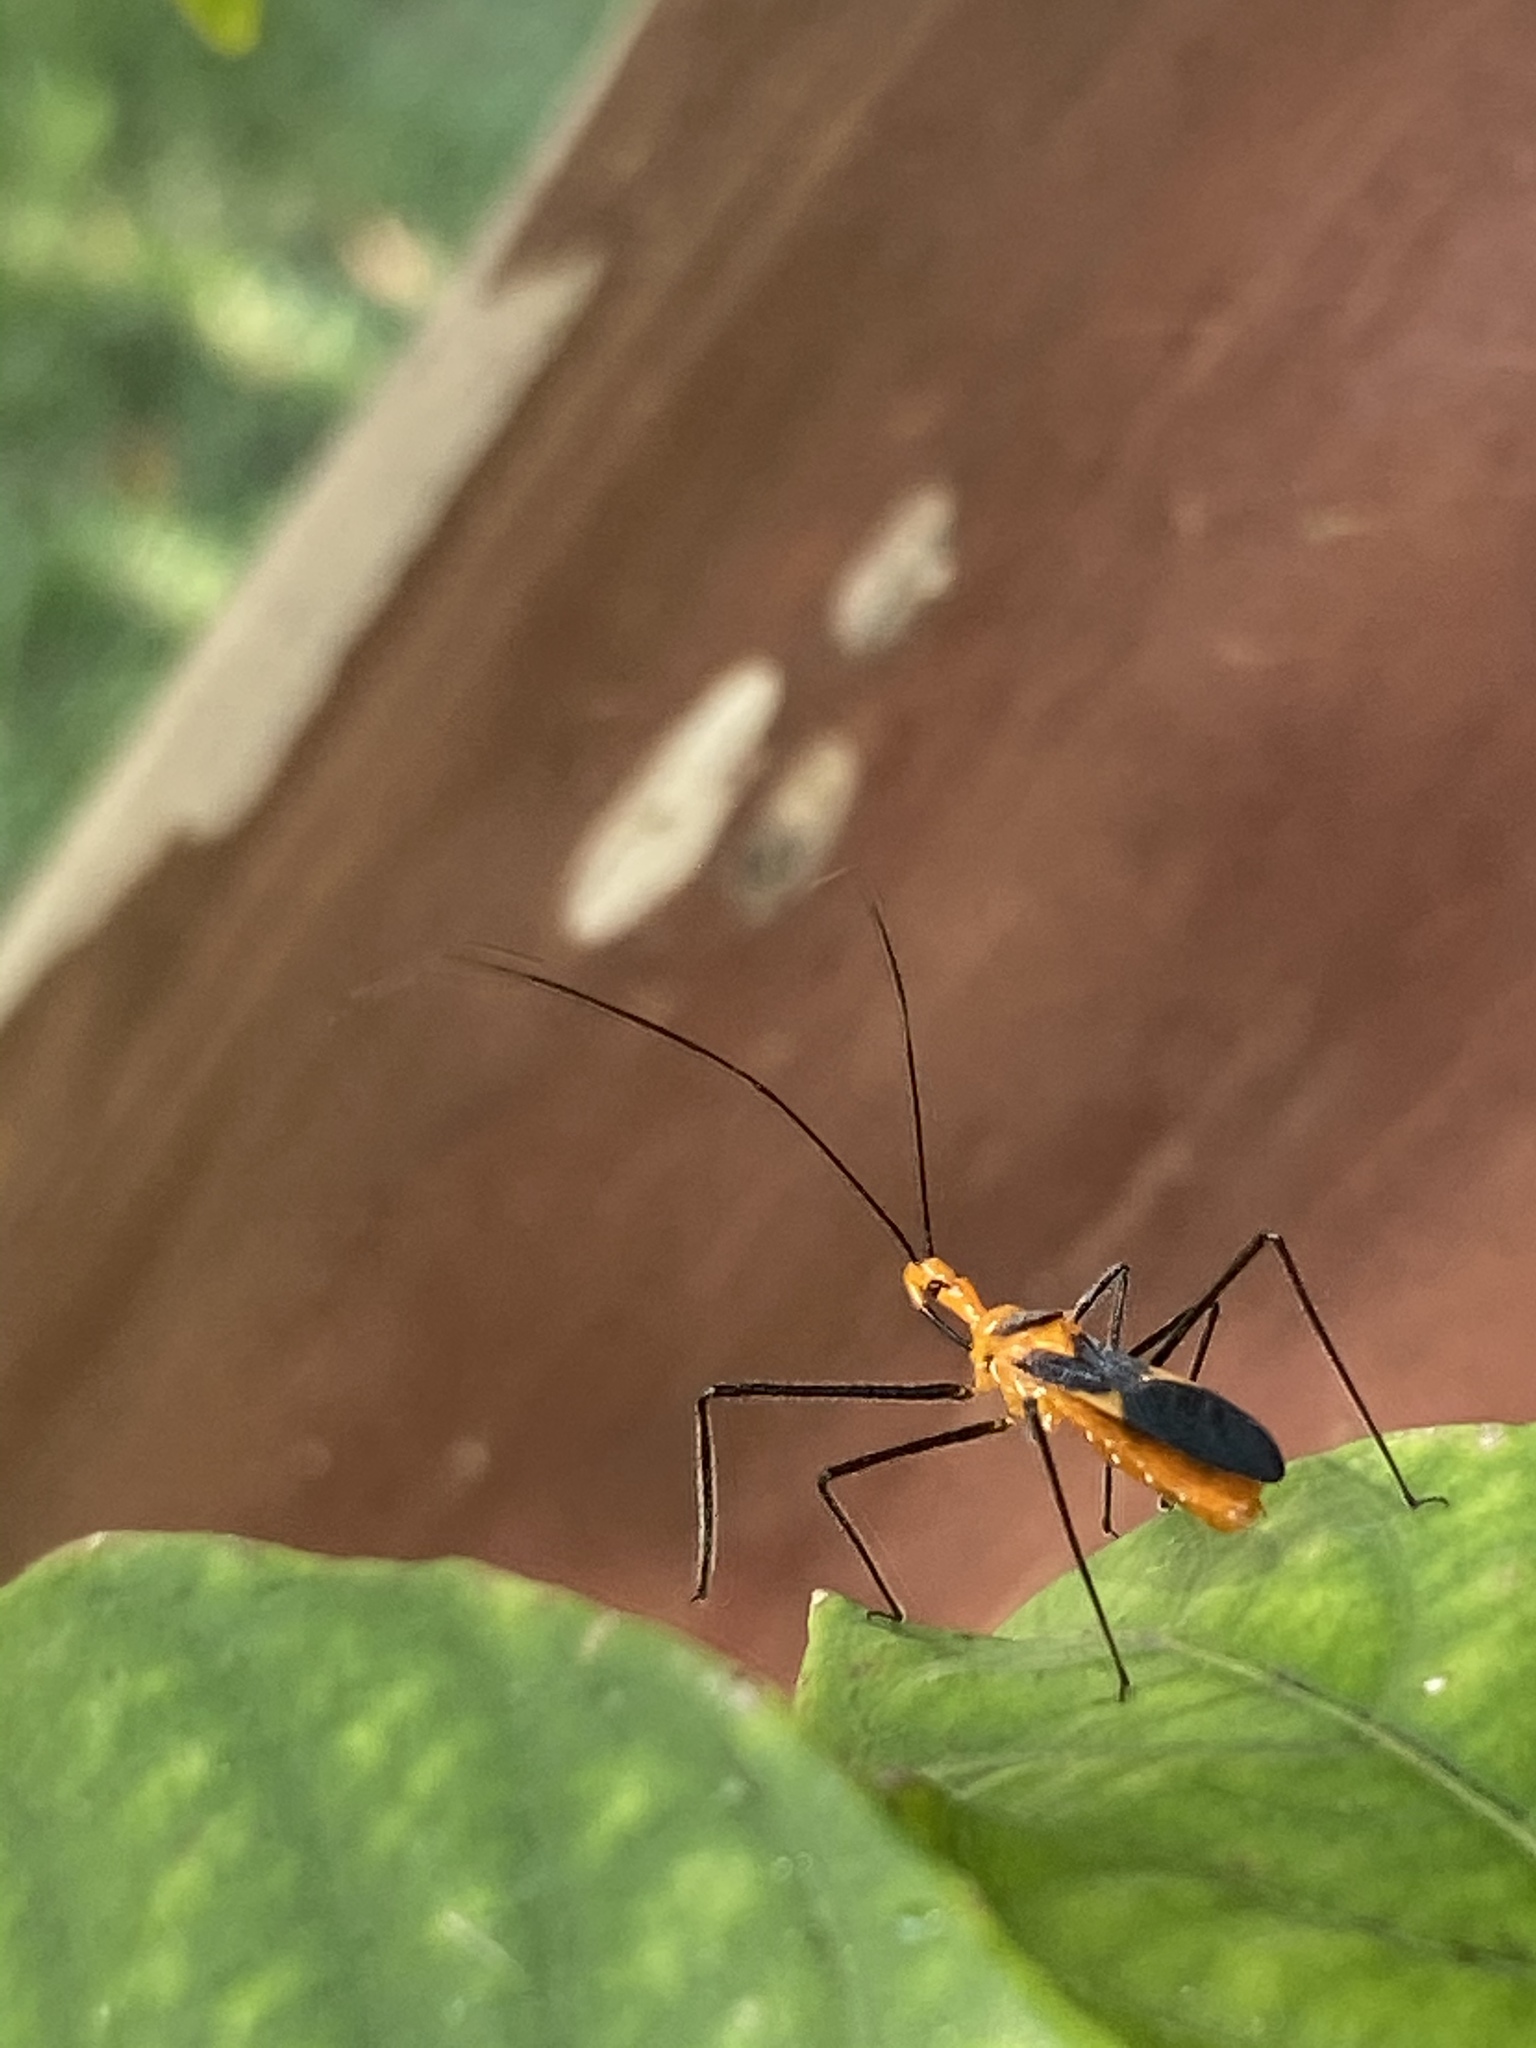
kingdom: Animalia
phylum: Arthropoda
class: Insecta
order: Hemiptera
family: Reduviidae
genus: Zelus
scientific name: Zelus longipes
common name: Milkweed assassin bug
